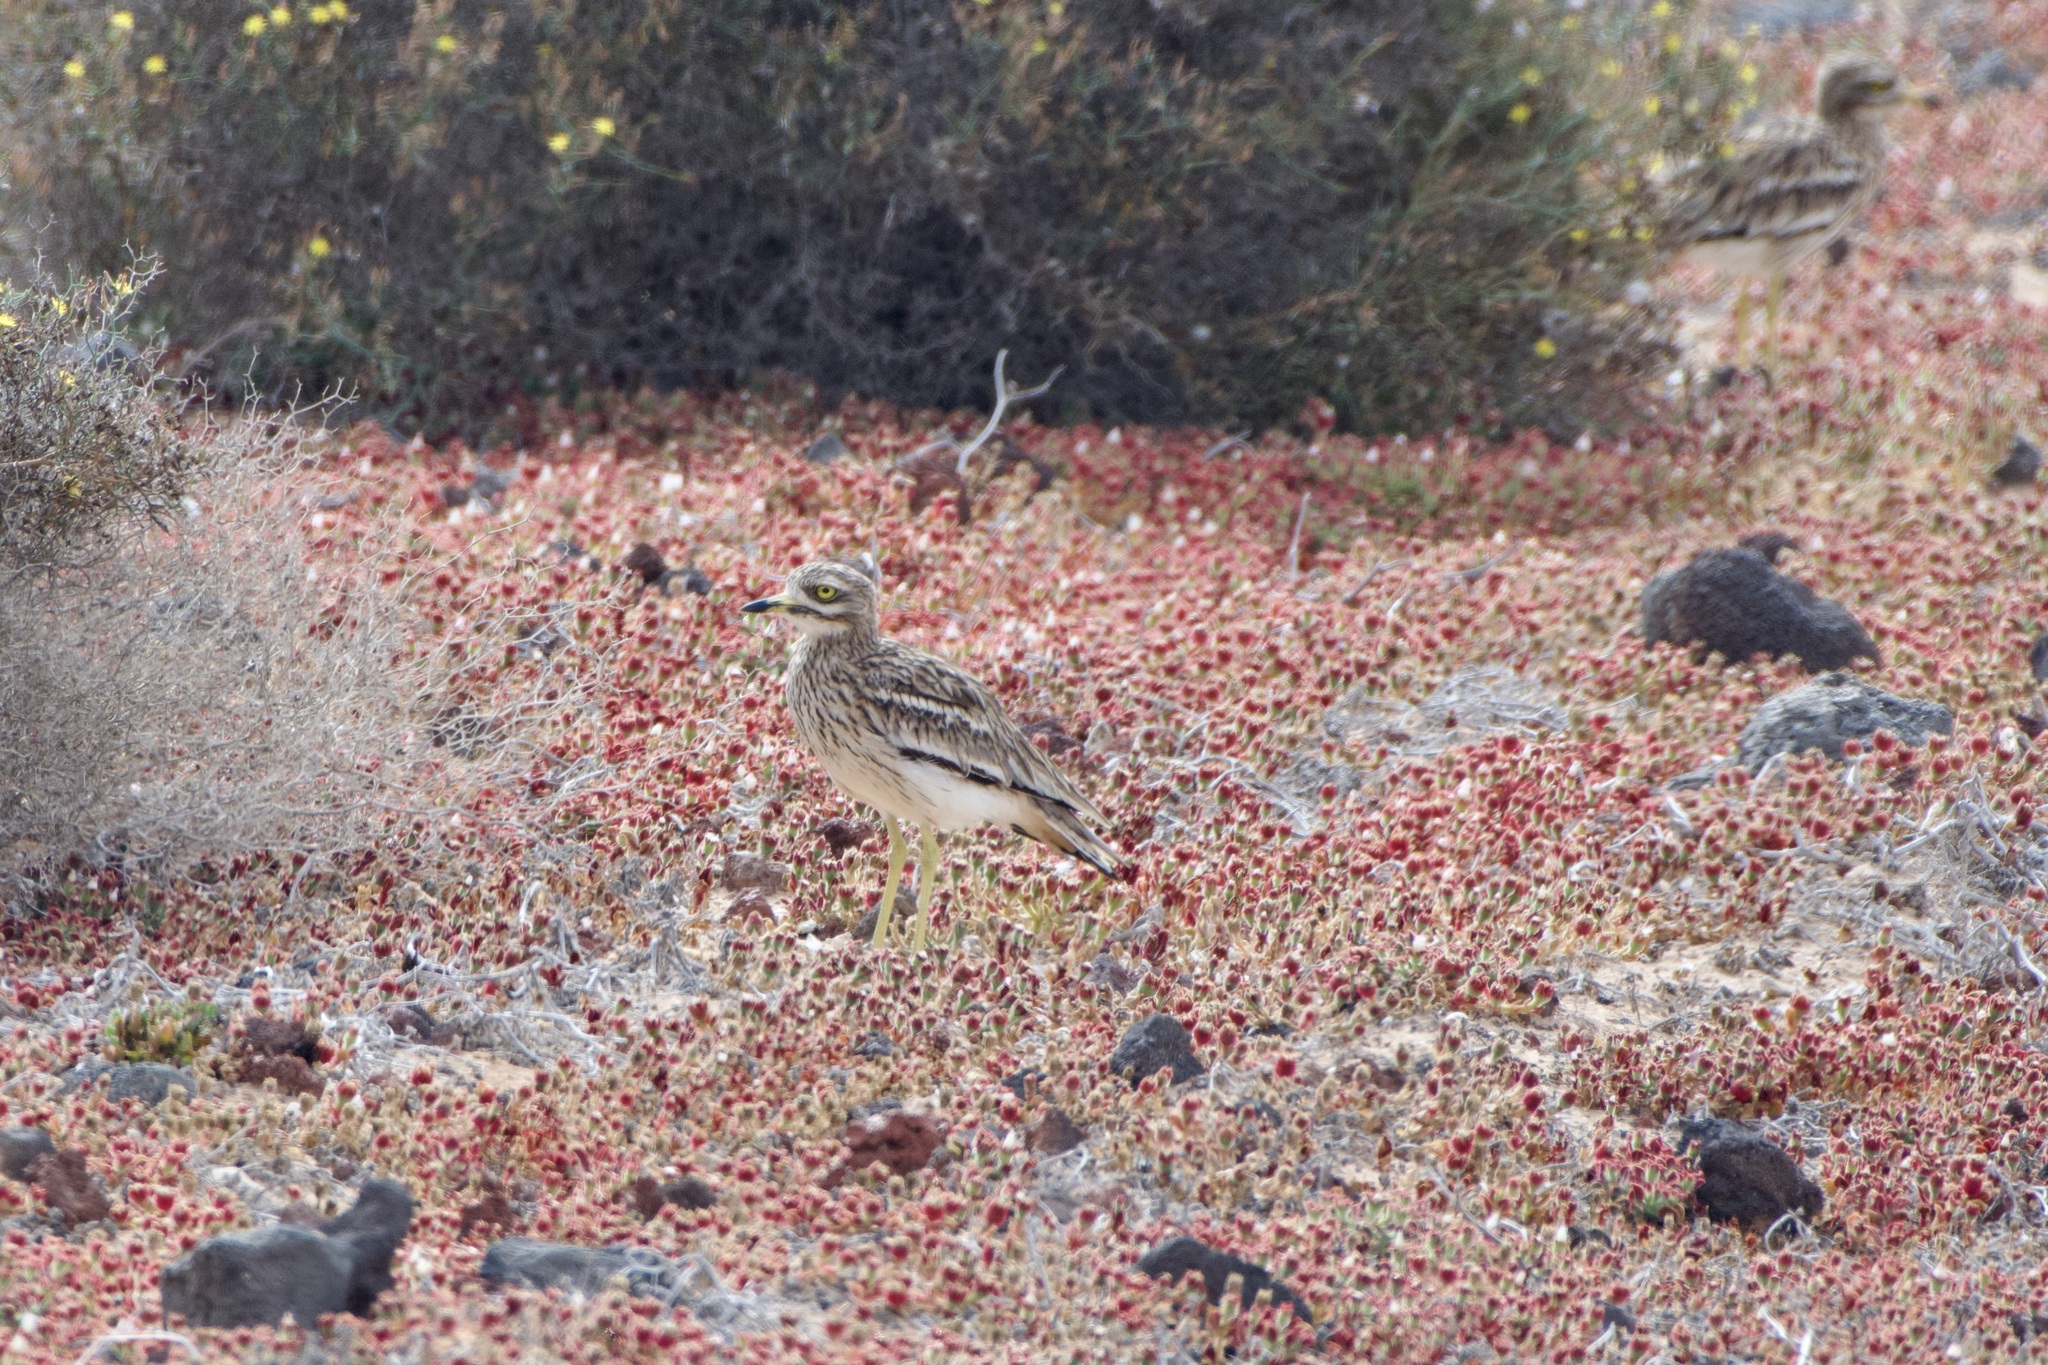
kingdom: Animalia
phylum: Chordata
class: Aves
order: Charadriiformes
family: Burhinidae
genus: Burhinus
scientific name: Burhinus oedicnemus
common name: Eurasian stone-curlew
